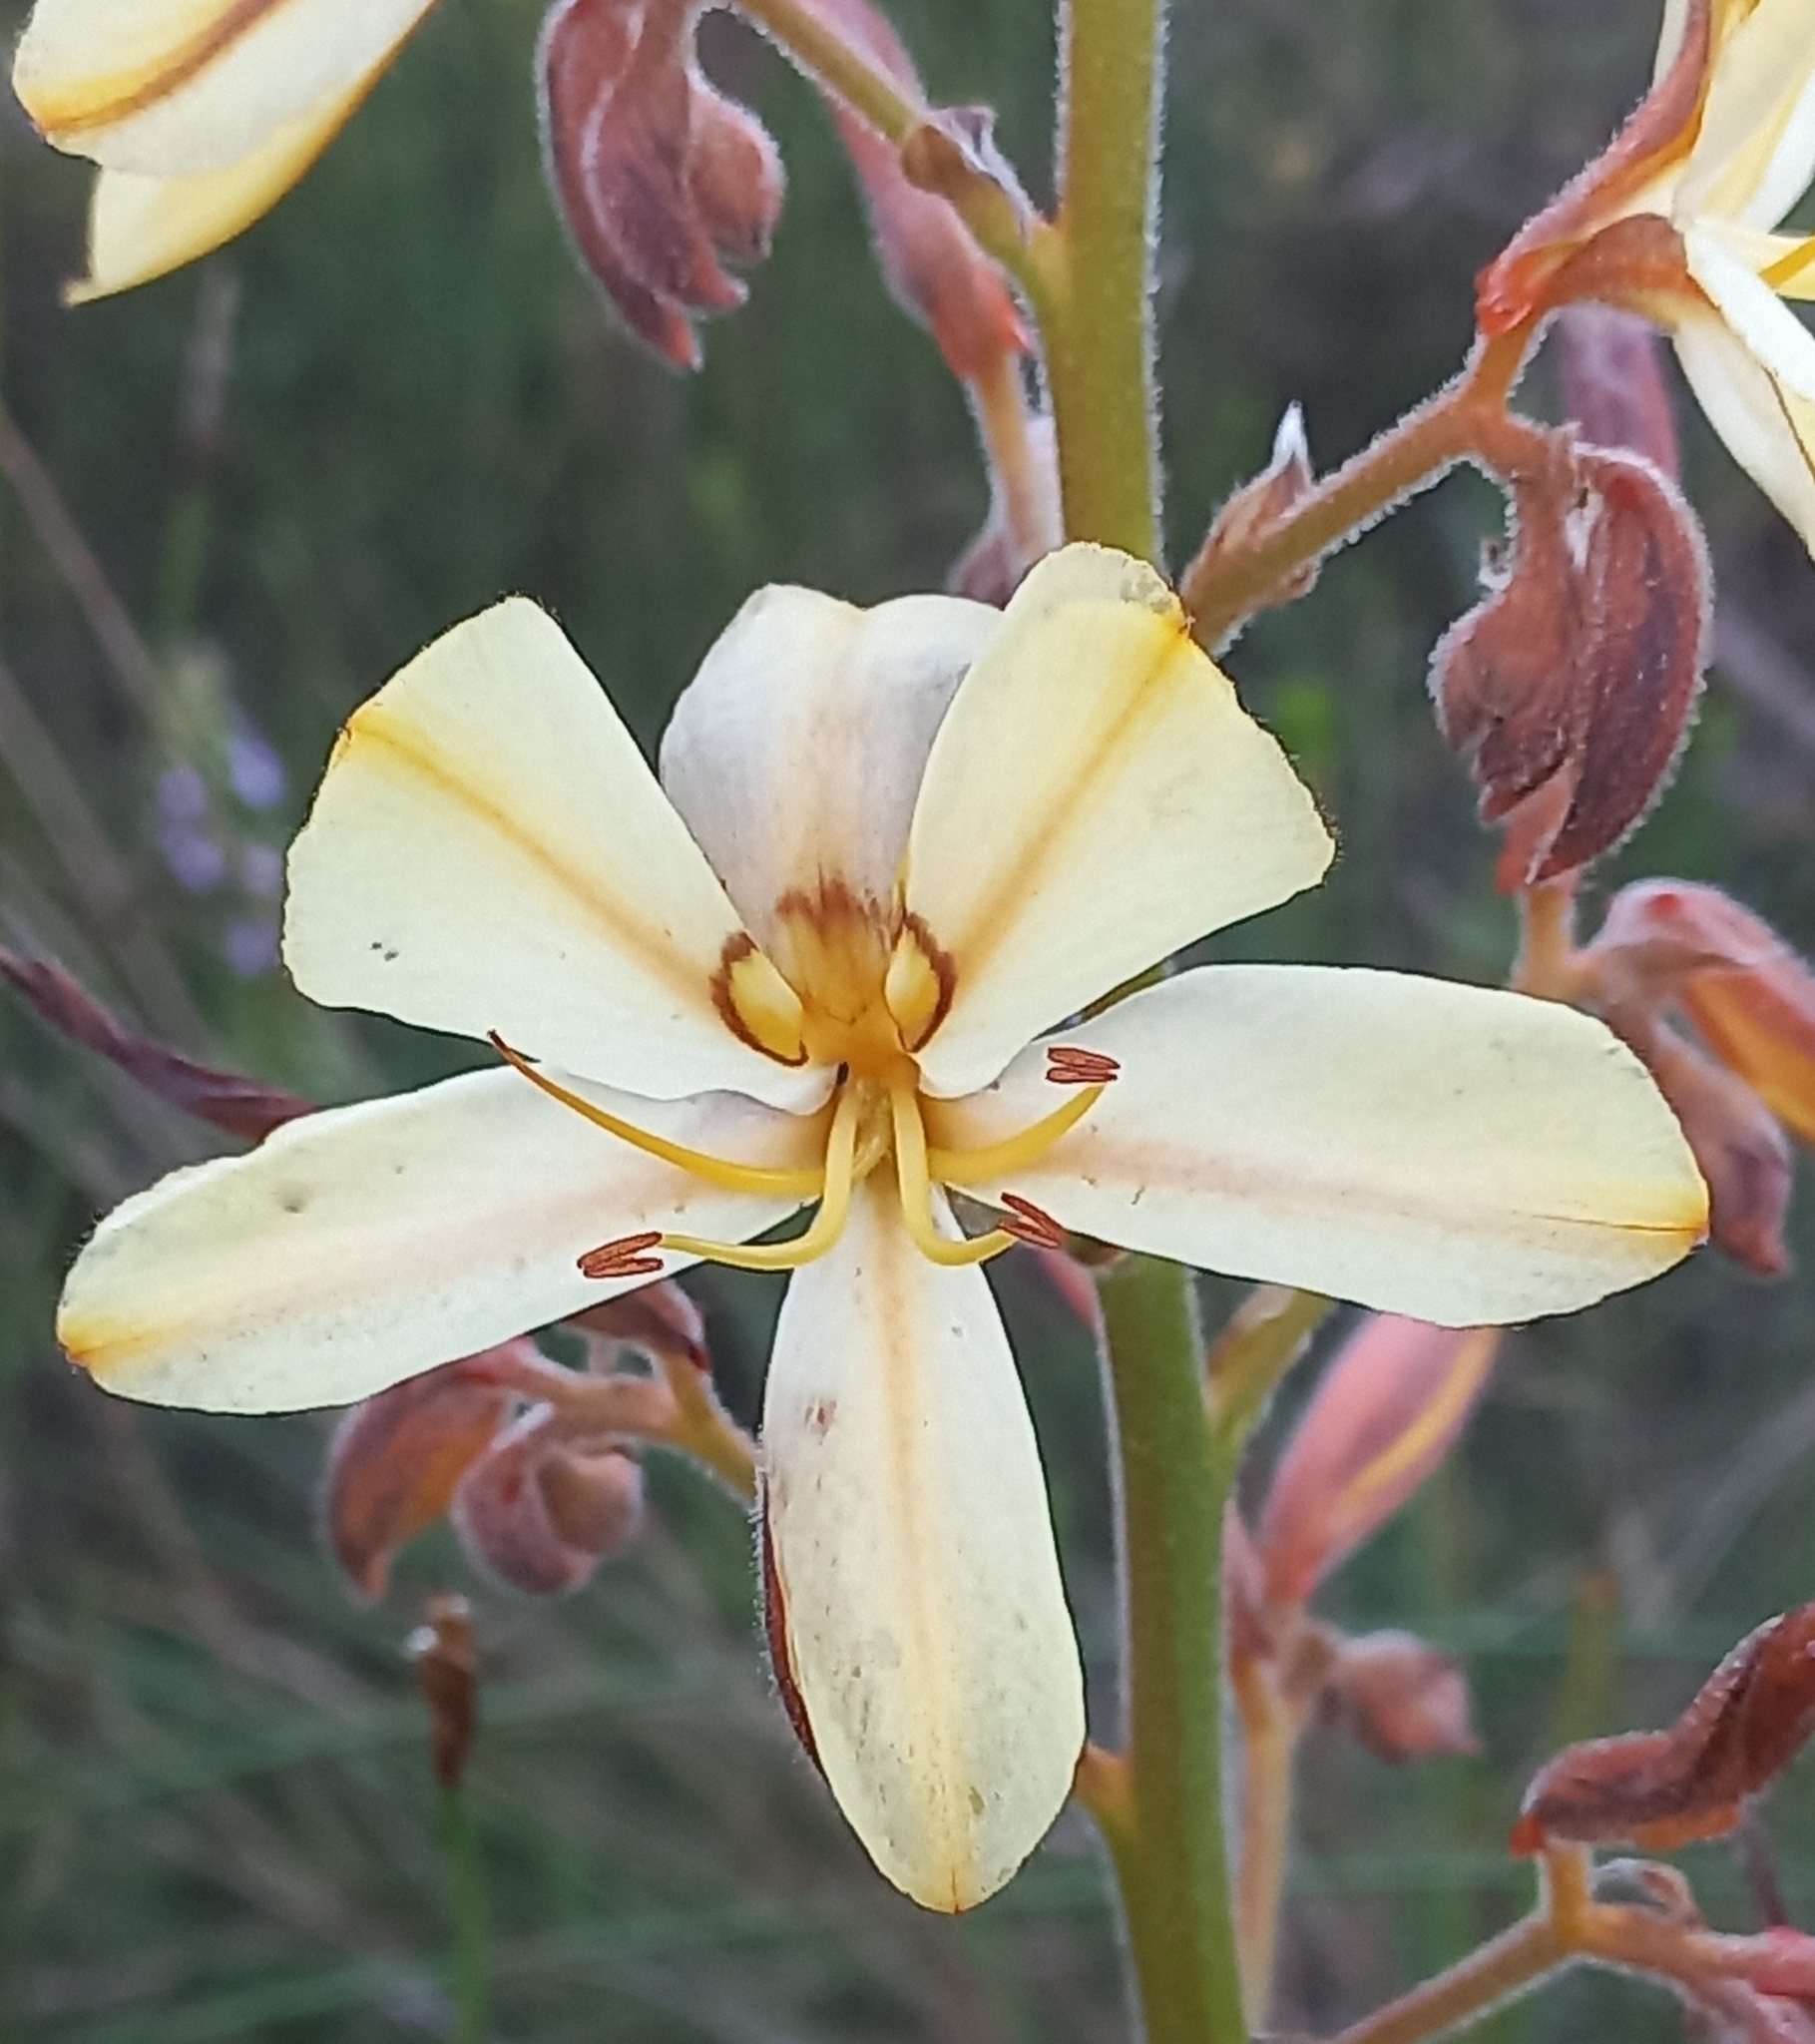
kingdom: Plantae
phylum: Tracheophyta
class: Liliopsida
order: Commelinales
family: Haemodoraceae
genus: Wachendorfia
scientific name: Wachendorfia paniculata
